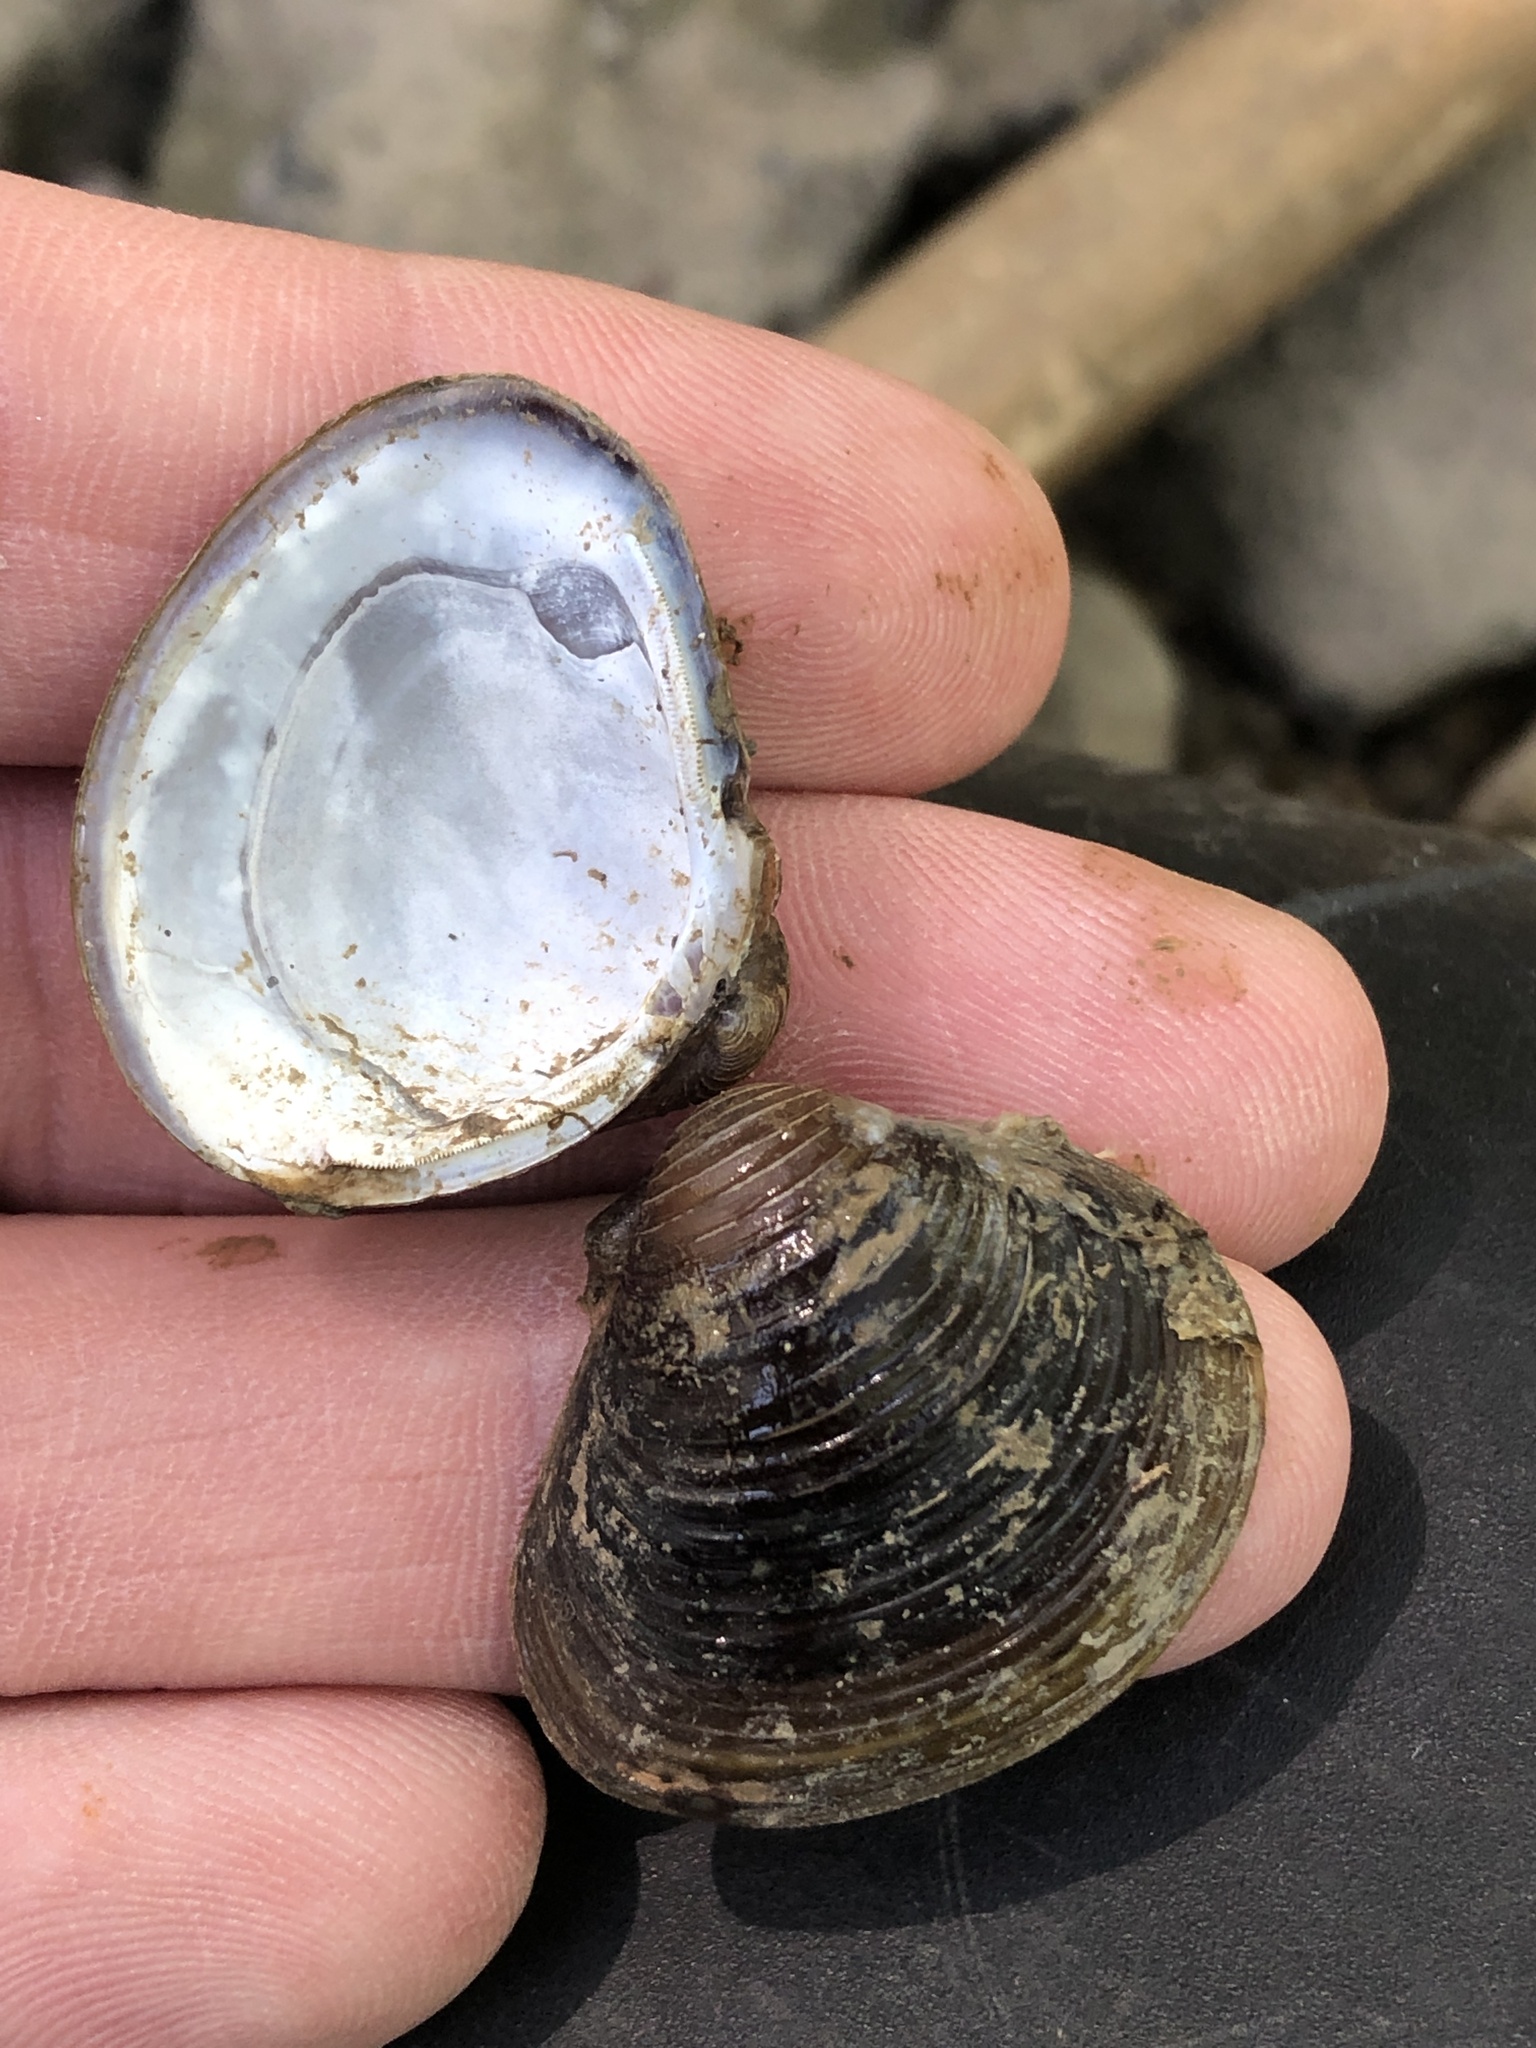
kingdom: Animalia
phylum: Mollusca
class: Bivalvia
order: Venerida
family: Cyrenidae
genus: Corbicula
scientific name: Corbicula fluminea
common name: Asian clam
